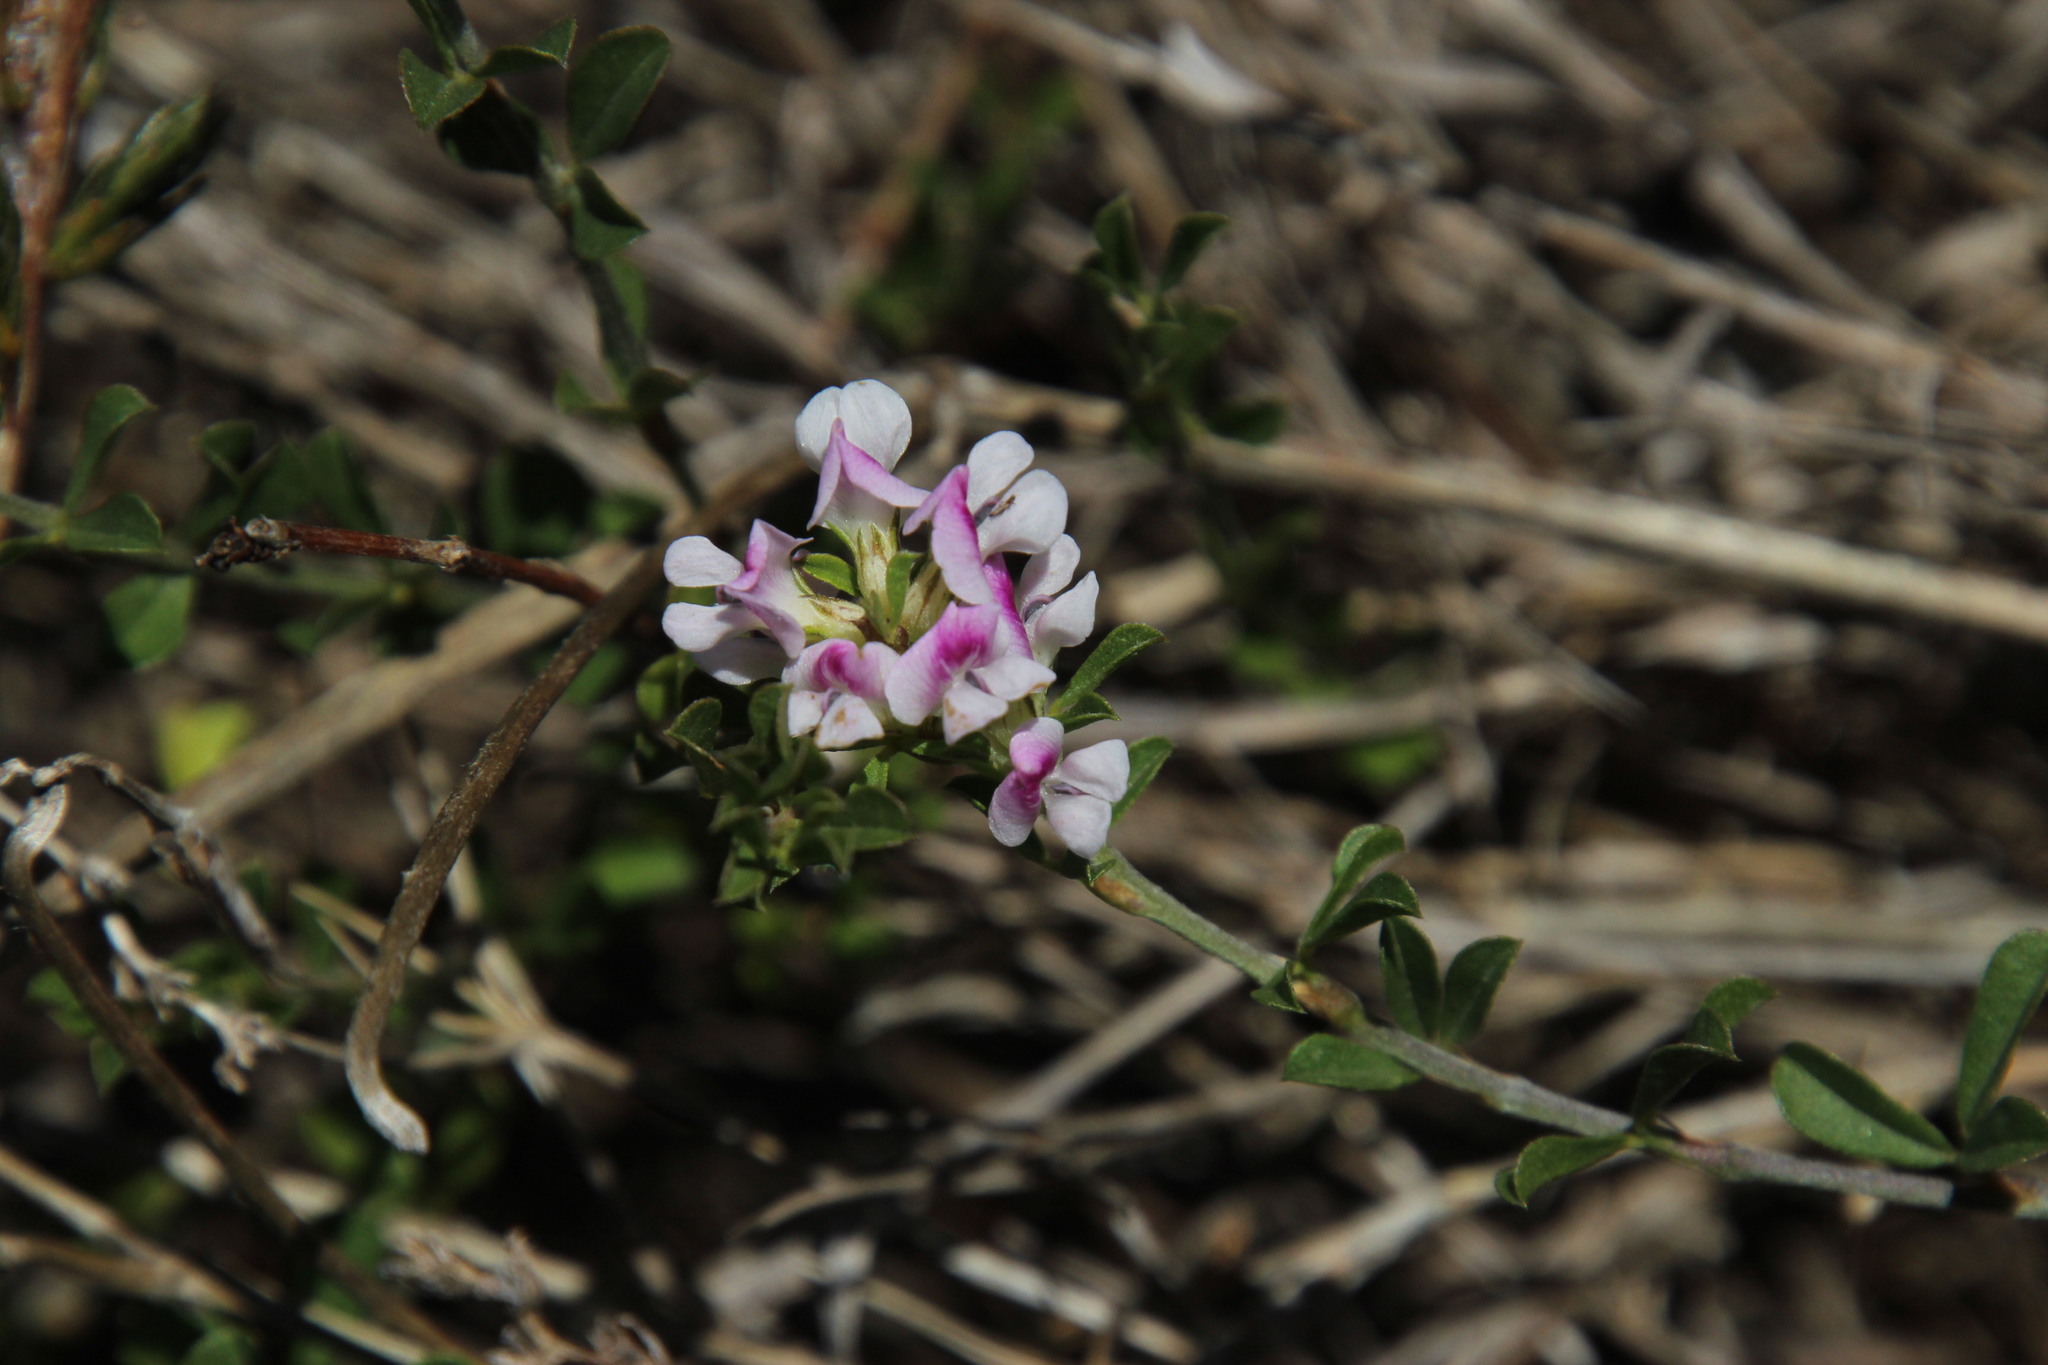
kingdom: Plantae
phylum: Tracheophyta
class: Magnoliopsida
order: Fabales
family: Fabaceae
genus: Psoralea
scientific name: Psoralea
